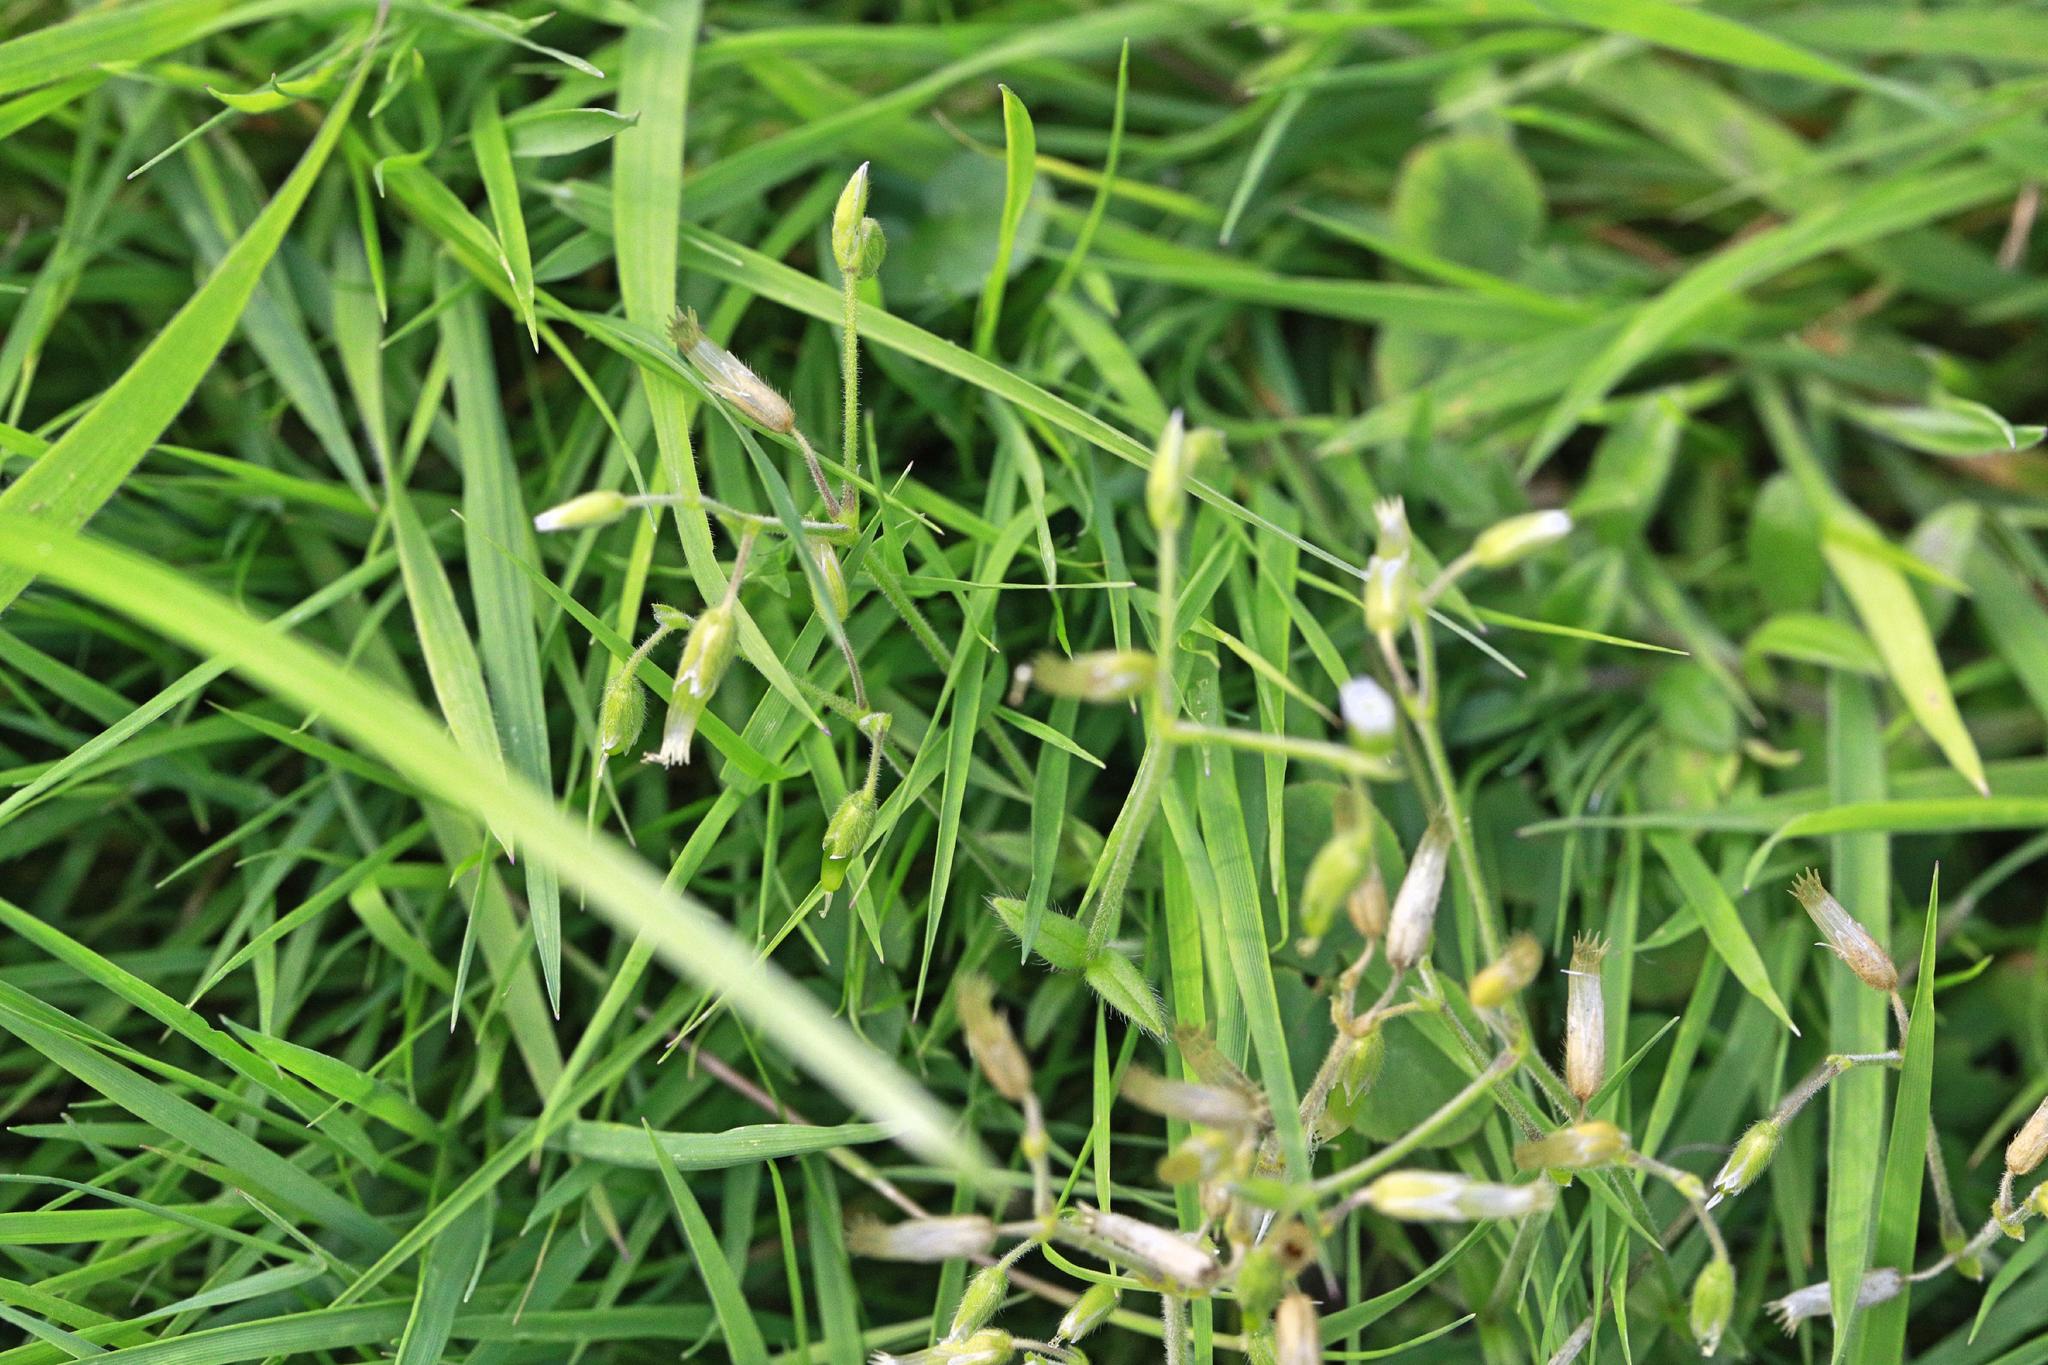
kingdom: Plantae
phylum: Tracheophyta
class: Magnoliopsida
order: Caryophyllales
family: Caryophyllaceae
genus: Cerastium
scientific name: Cerastium fontanum
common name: Common mouse-ear
